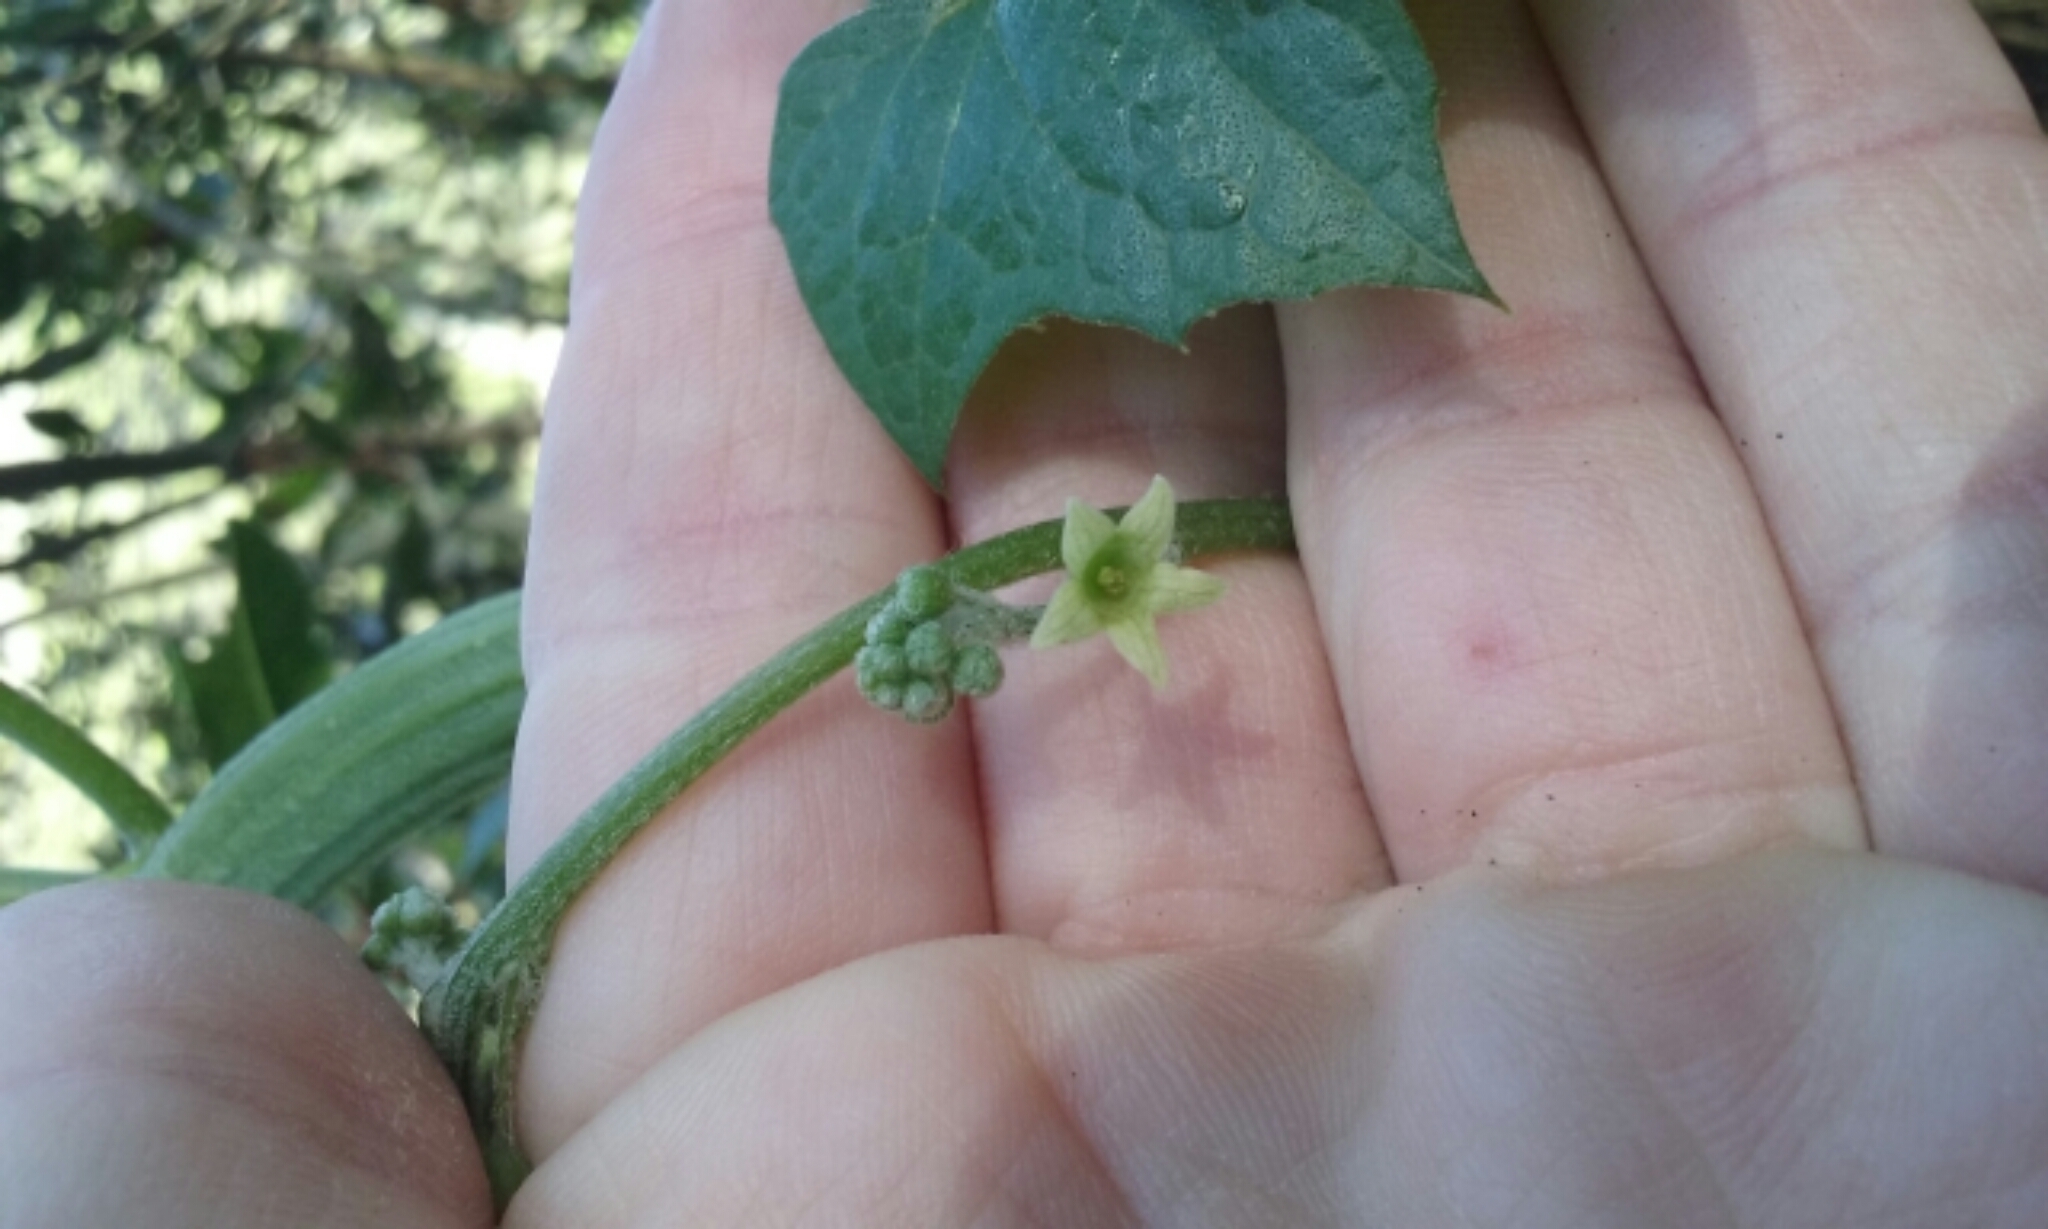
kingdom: Plantae
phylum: Tracheophyta
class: Magnoliopsida
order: Cucurbitales
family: Cucurbitaceae
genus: Marah
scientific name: Marah fabacea
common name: California manroot
